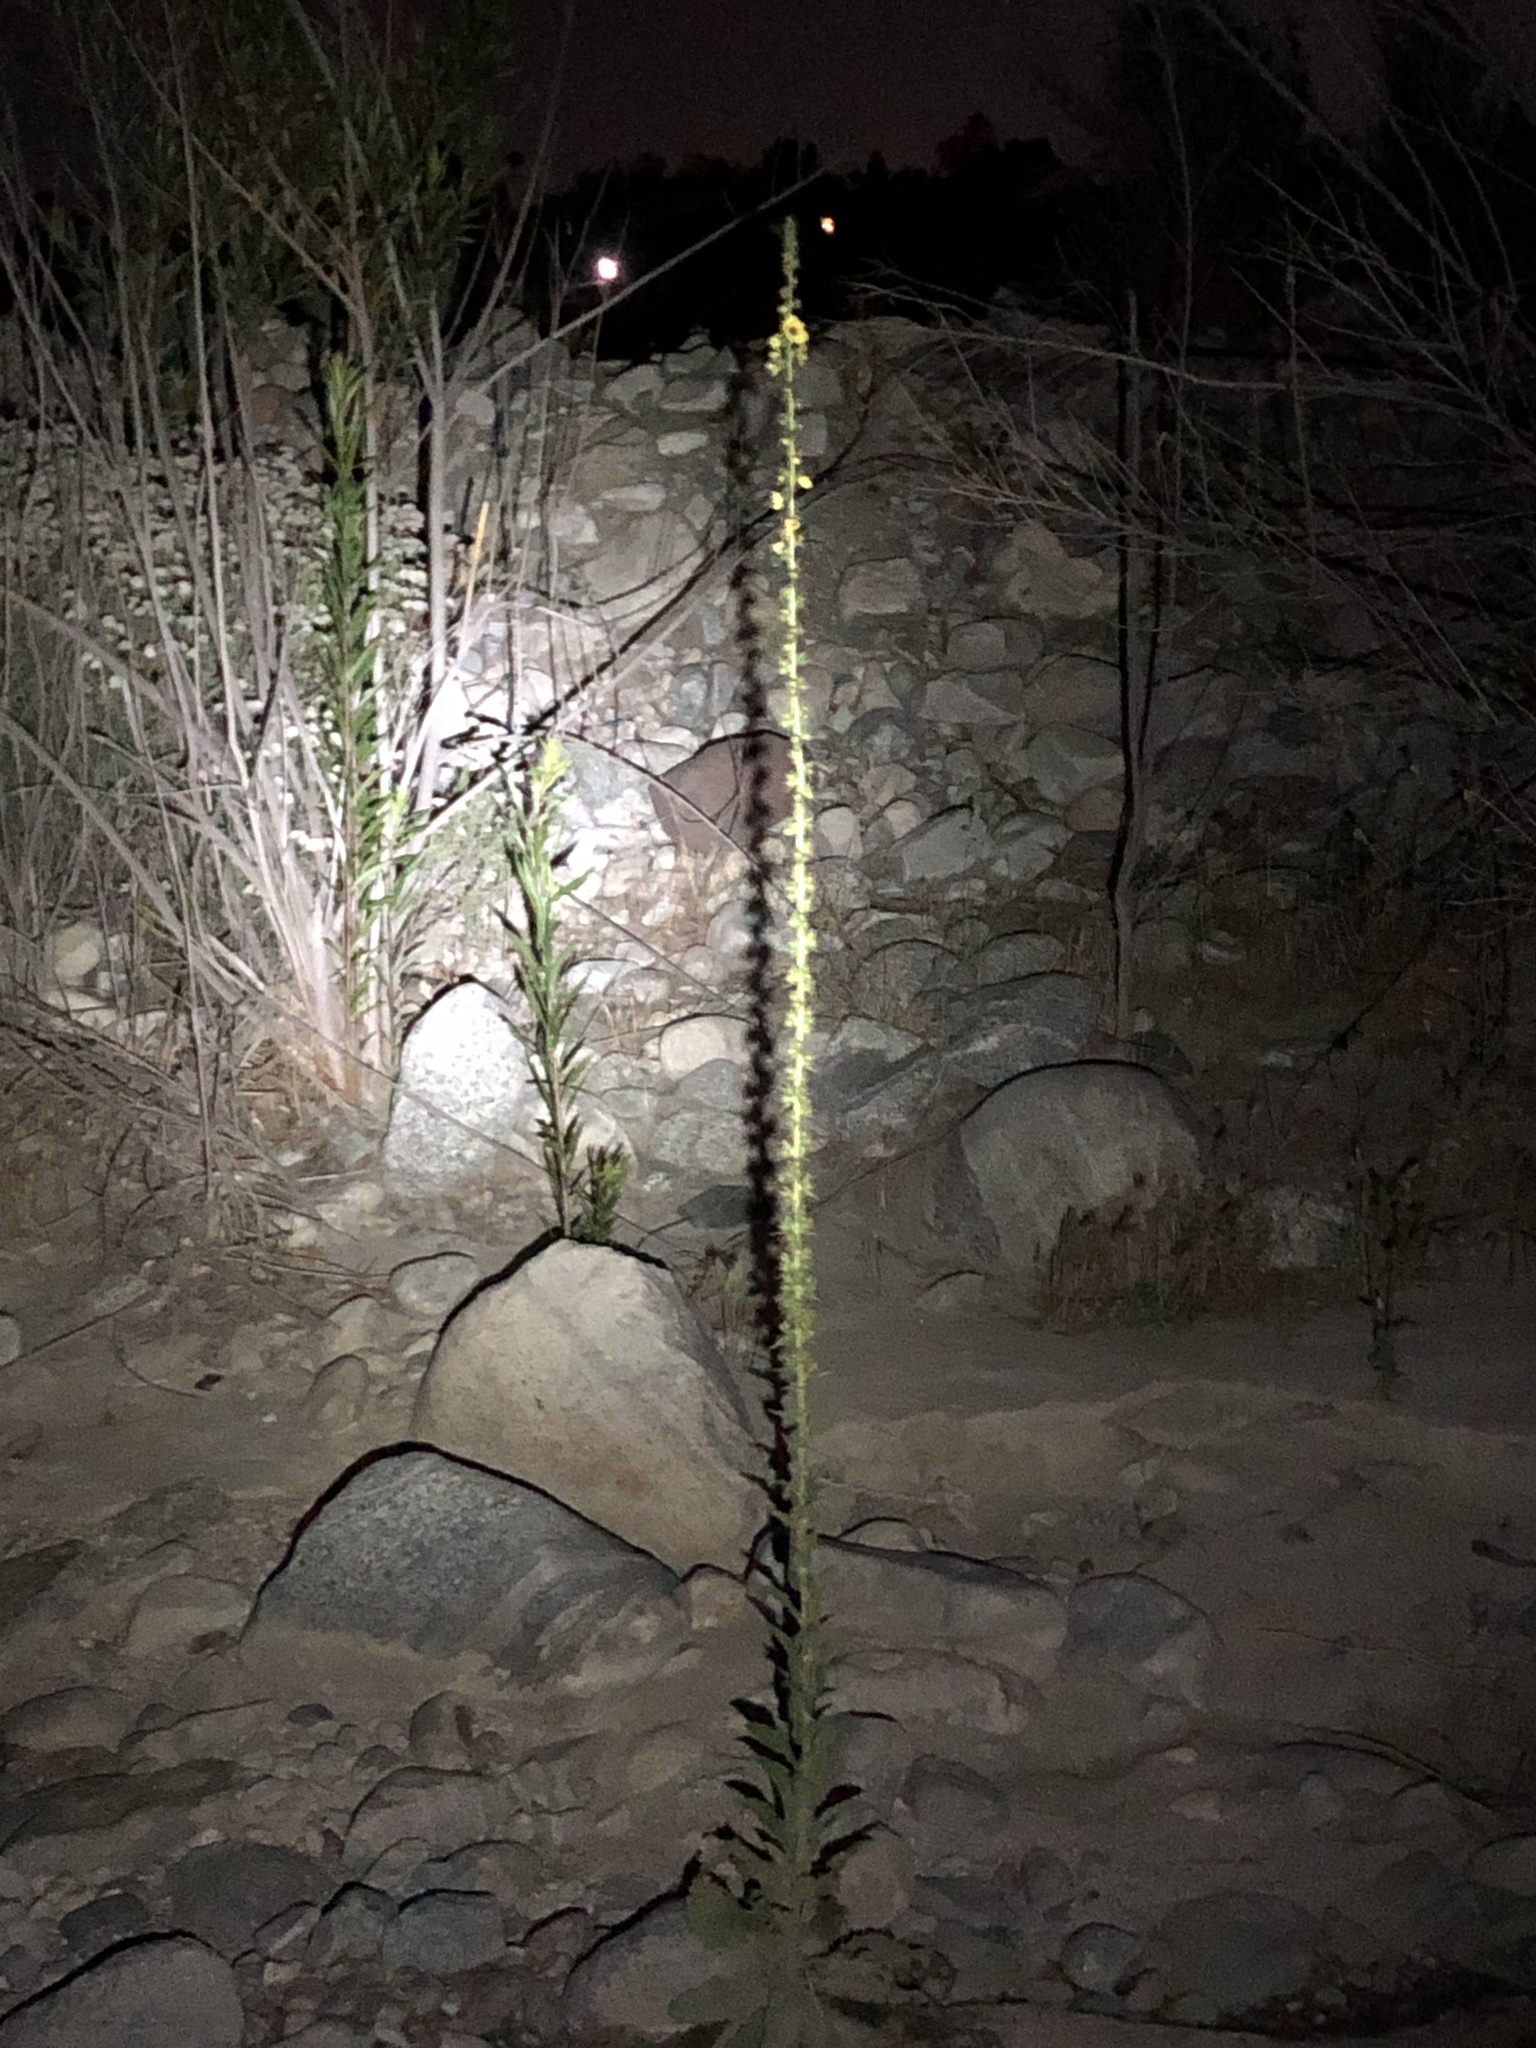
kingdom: Plantae
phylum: Tracheophyta
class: Magnoliopsida
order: Lamiales
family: Scrophulariaceae
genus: Verbascum
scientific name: Verbascum virgatum
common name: Twiggy mullein
